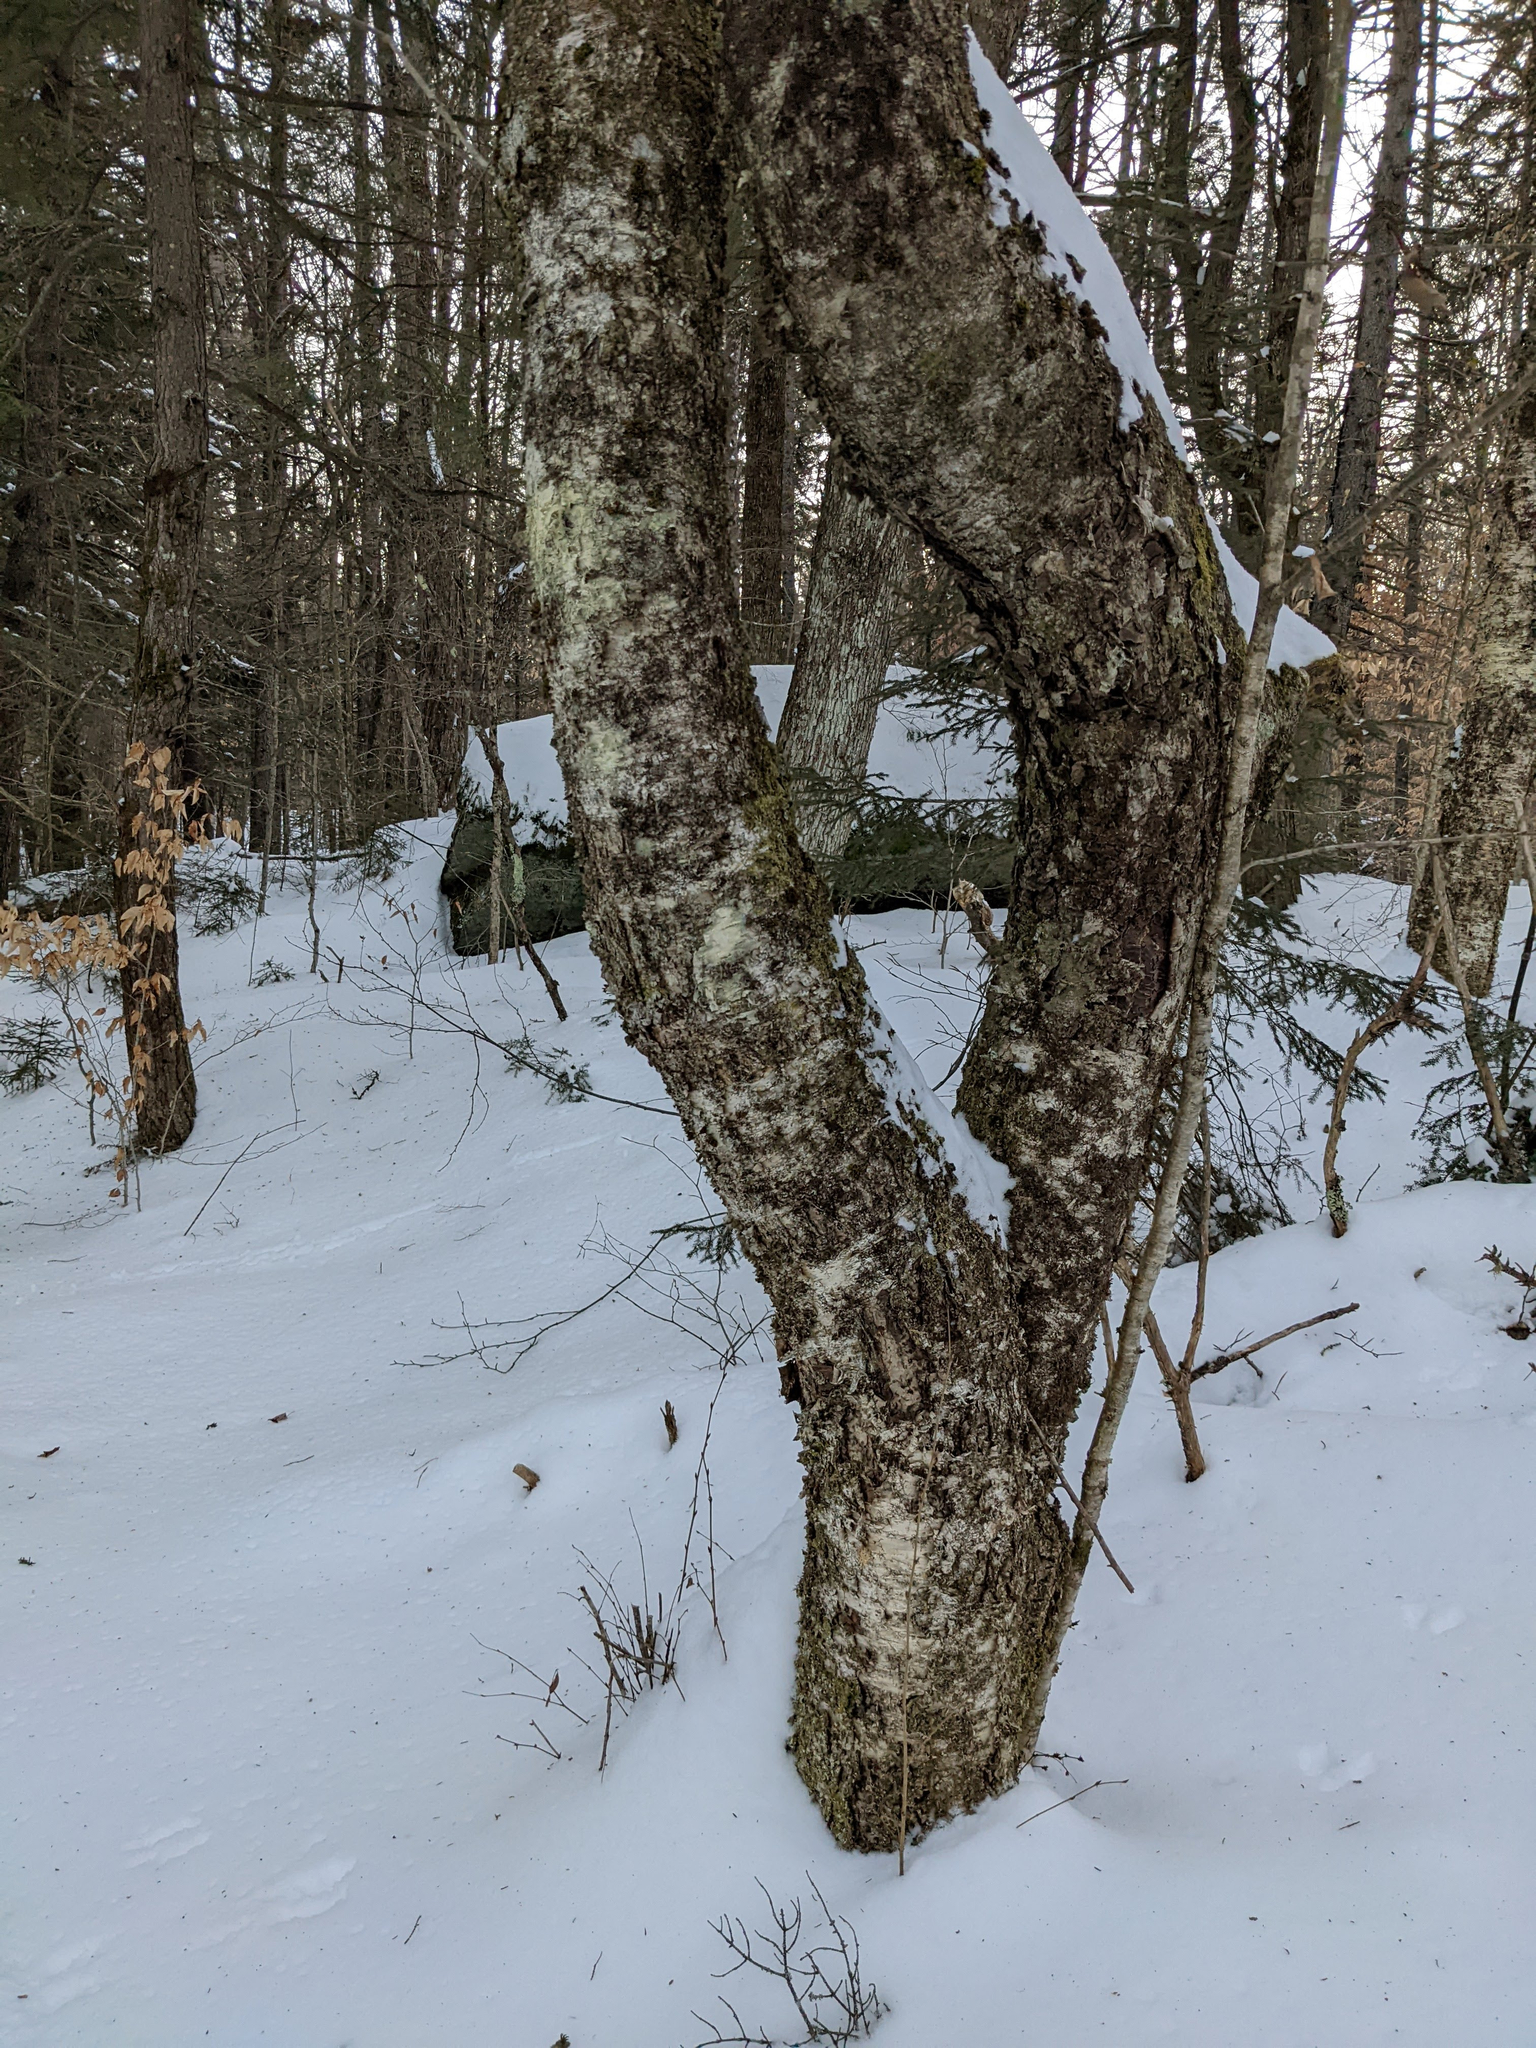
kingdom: Plantae
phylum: Tracheophyta
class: Magnoliopsida
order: Fagales
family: Betulaceae
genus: Betula
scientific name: Betula alleghaniensis
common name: Yellow birch
